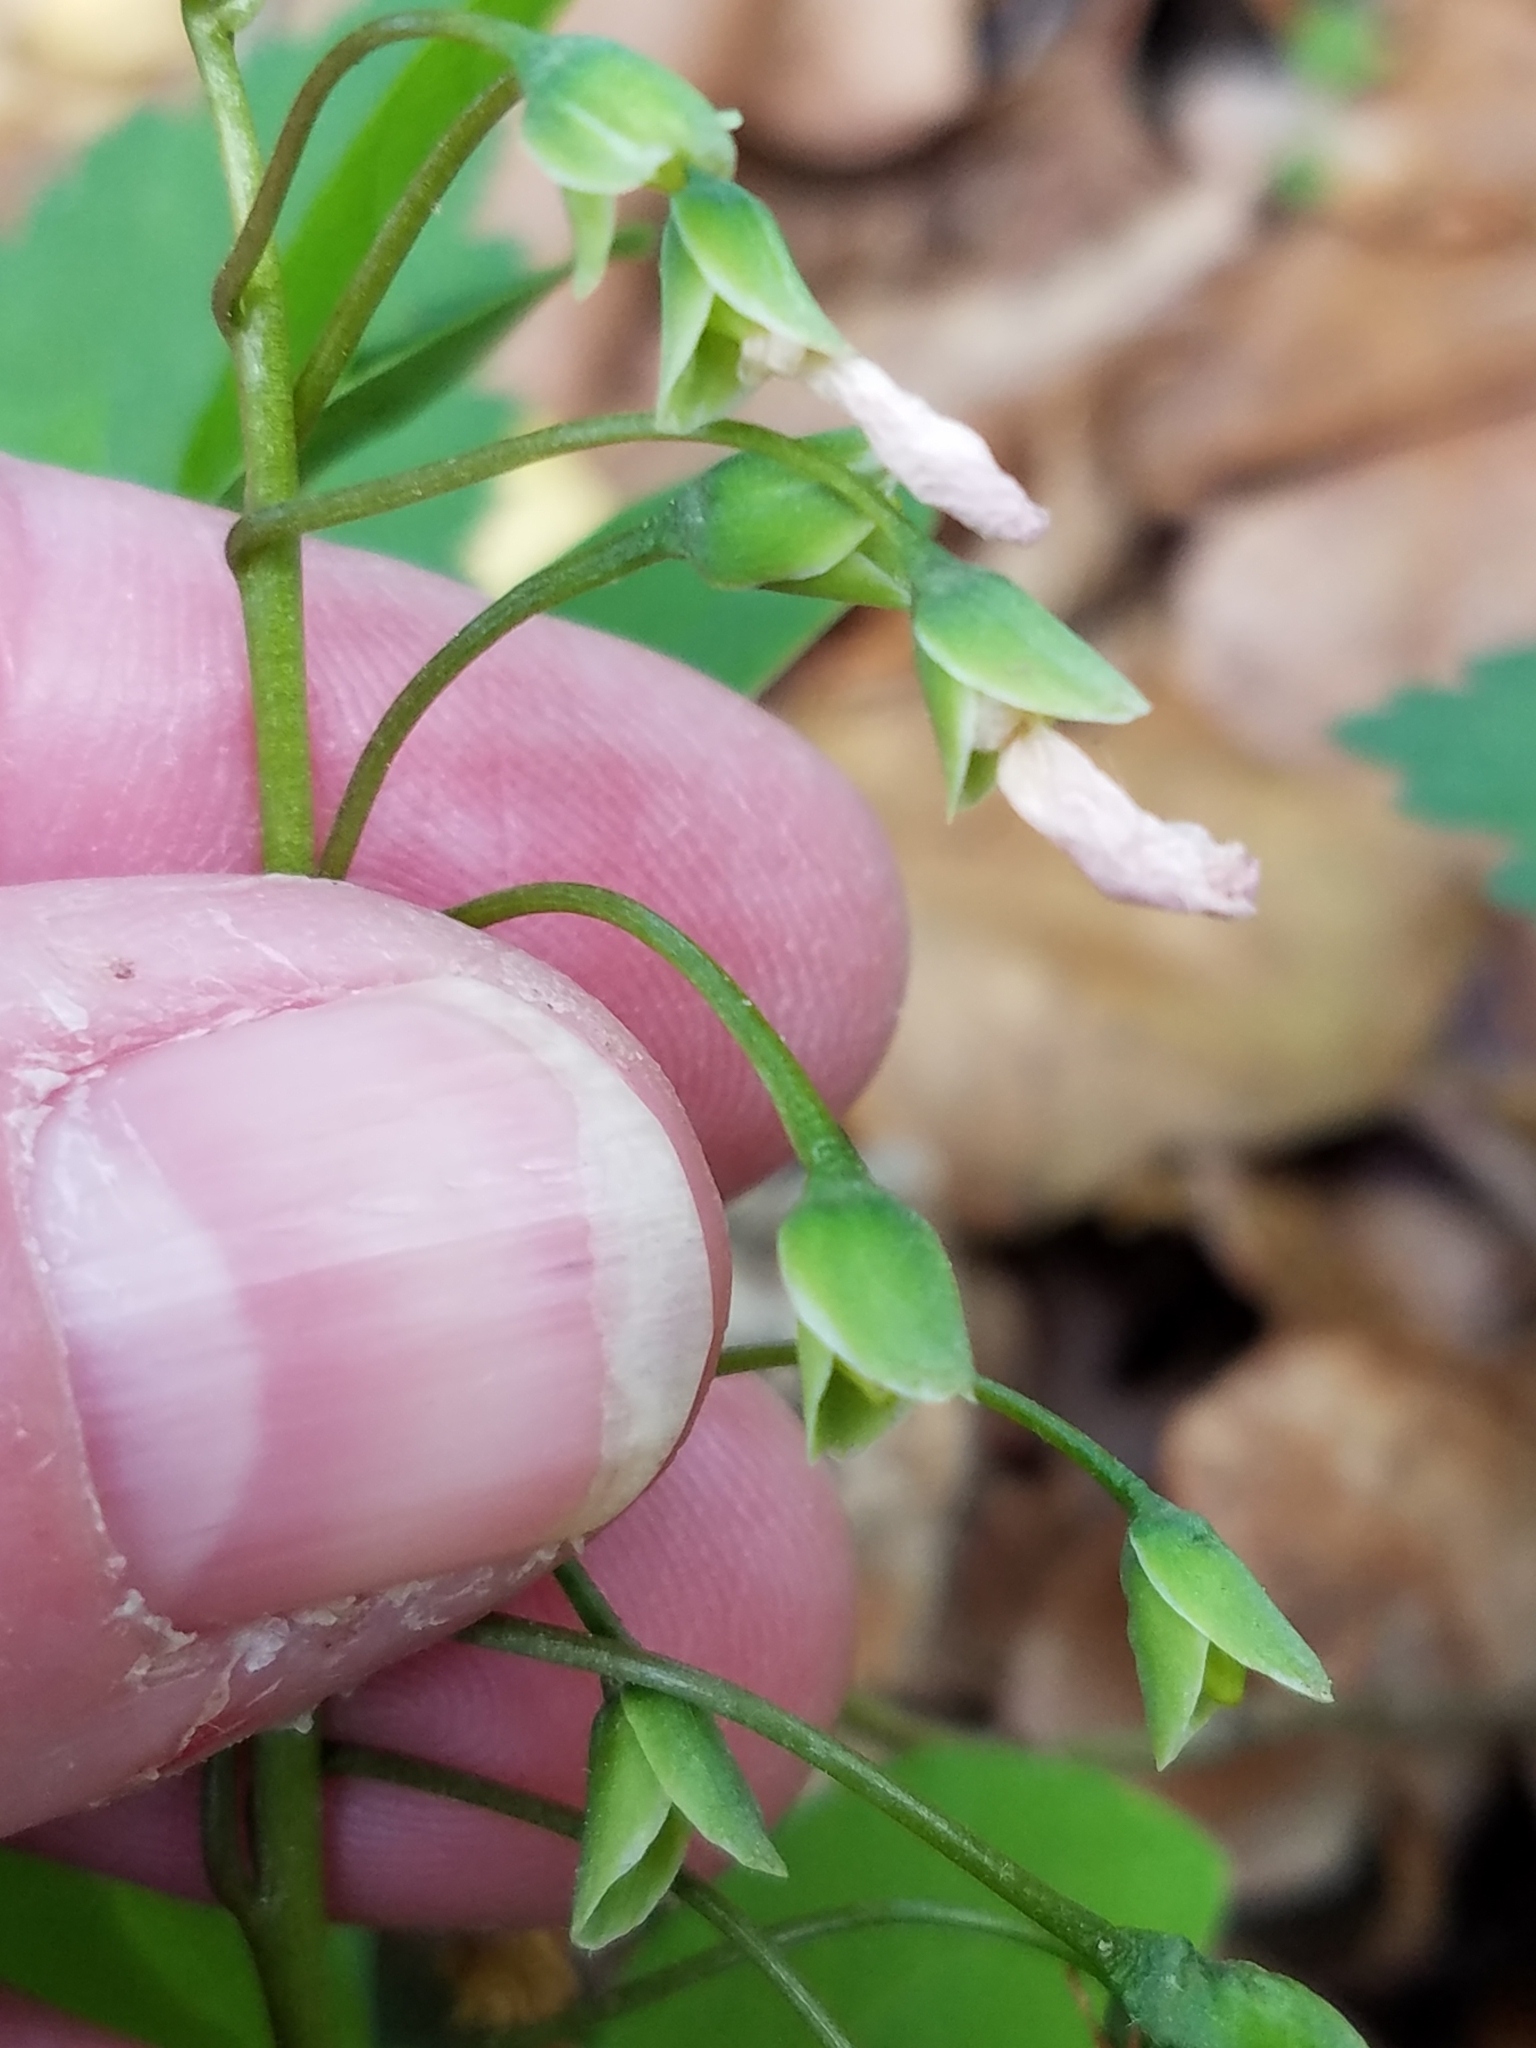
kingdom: Plantae
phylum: Tracheophyta
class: Magnoliopsida
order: Caryophyllales
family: Montiaceae
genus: Claytonia
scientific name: Claytonia virginica
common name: Virginia springbeauty
